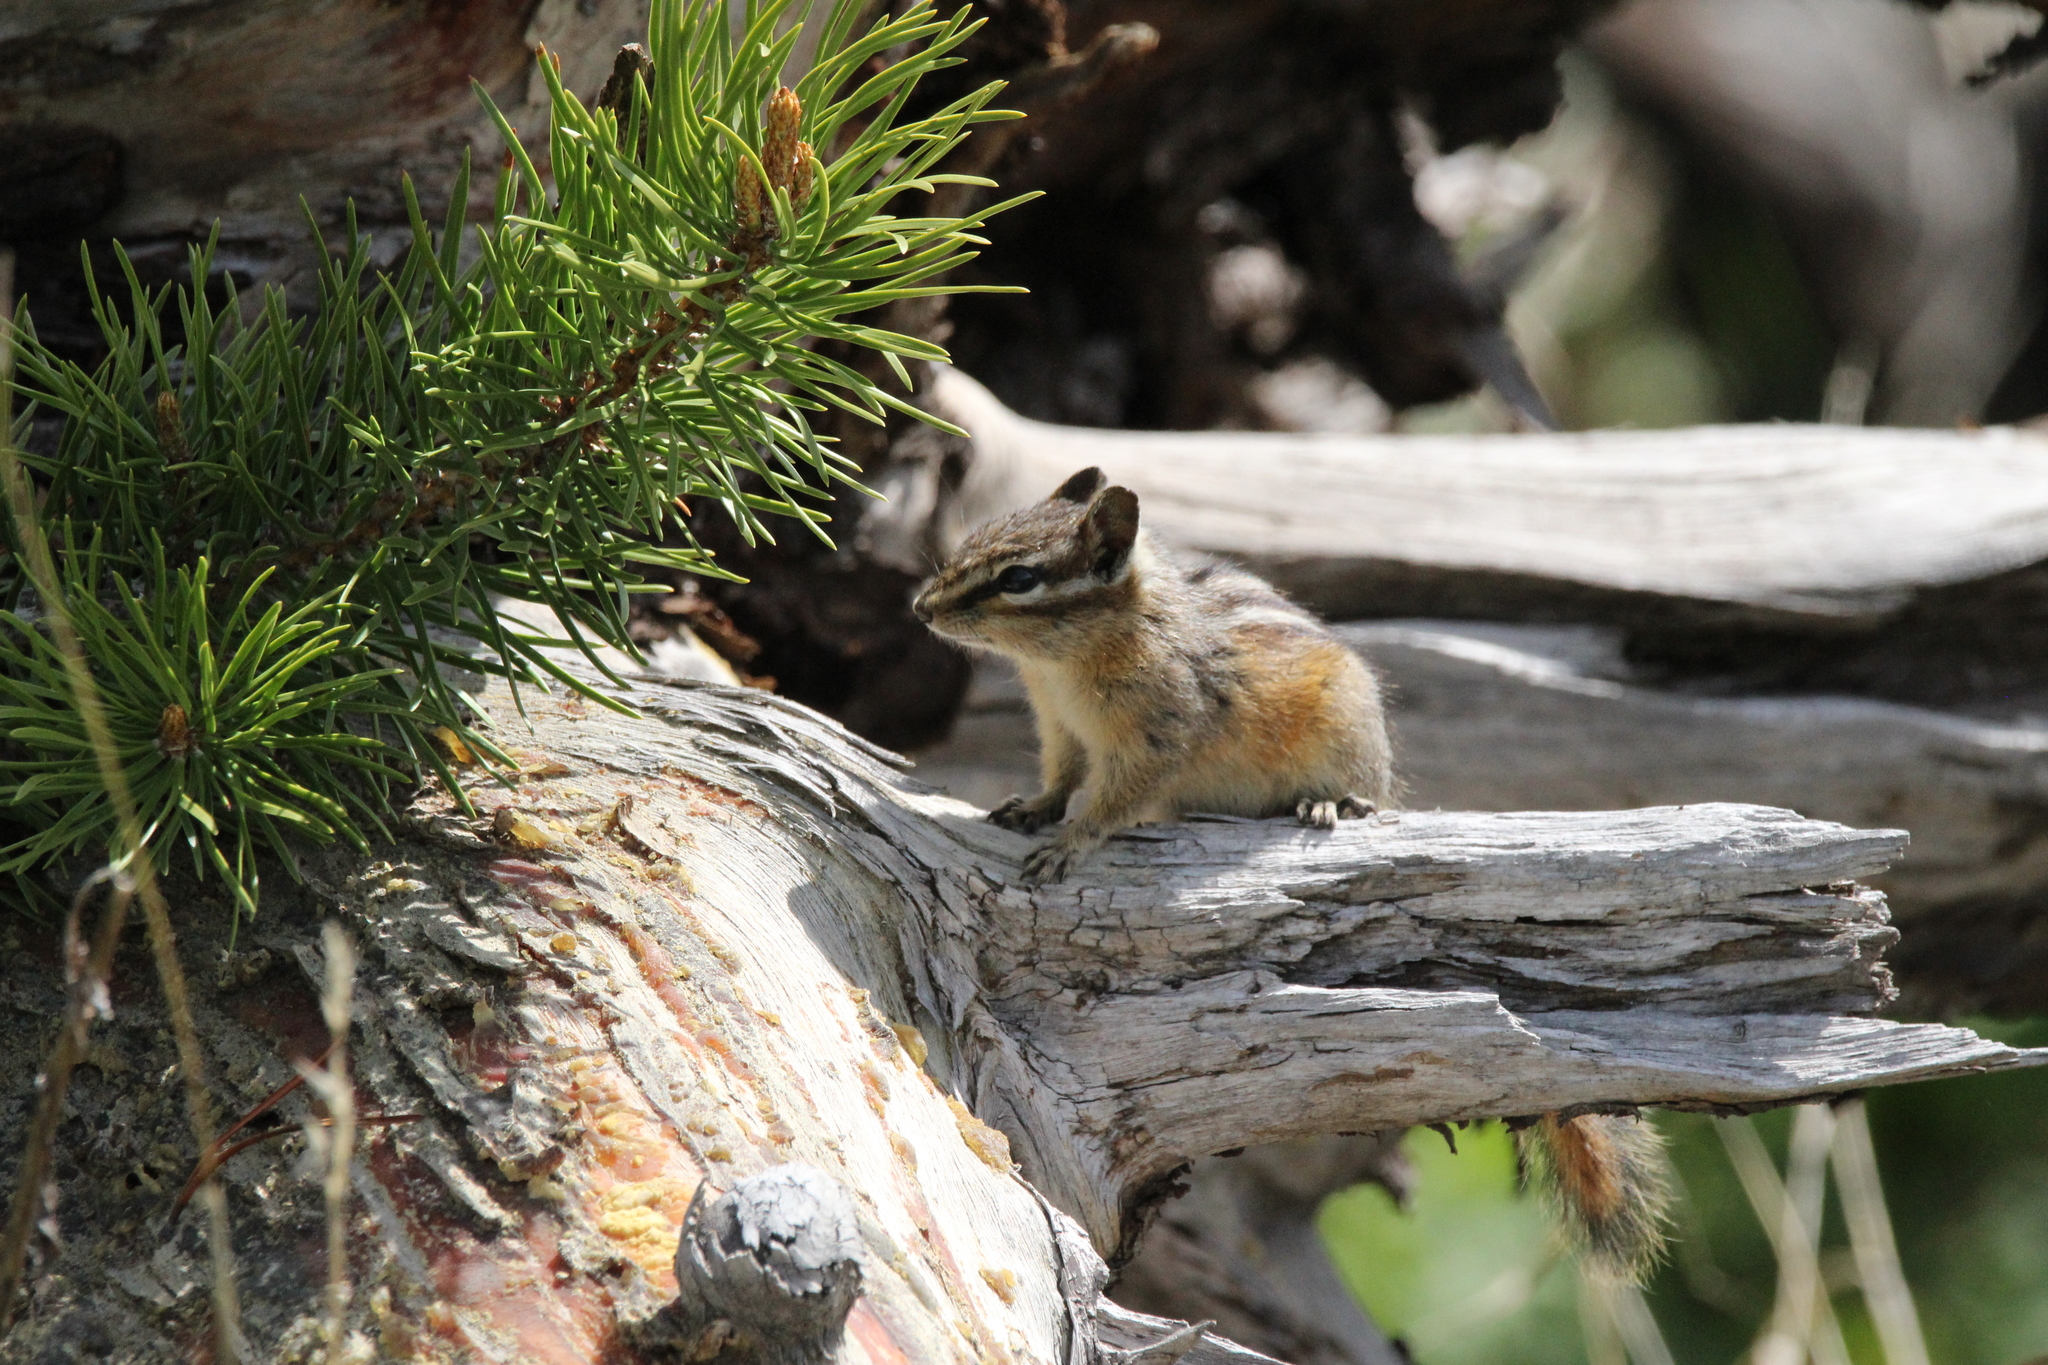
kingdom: Animalia
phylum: Chordata
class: Mammalia
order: Rodentia
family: Sciuridae
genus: Tamias
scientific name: Tamias minimus
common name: Least chipmunk
